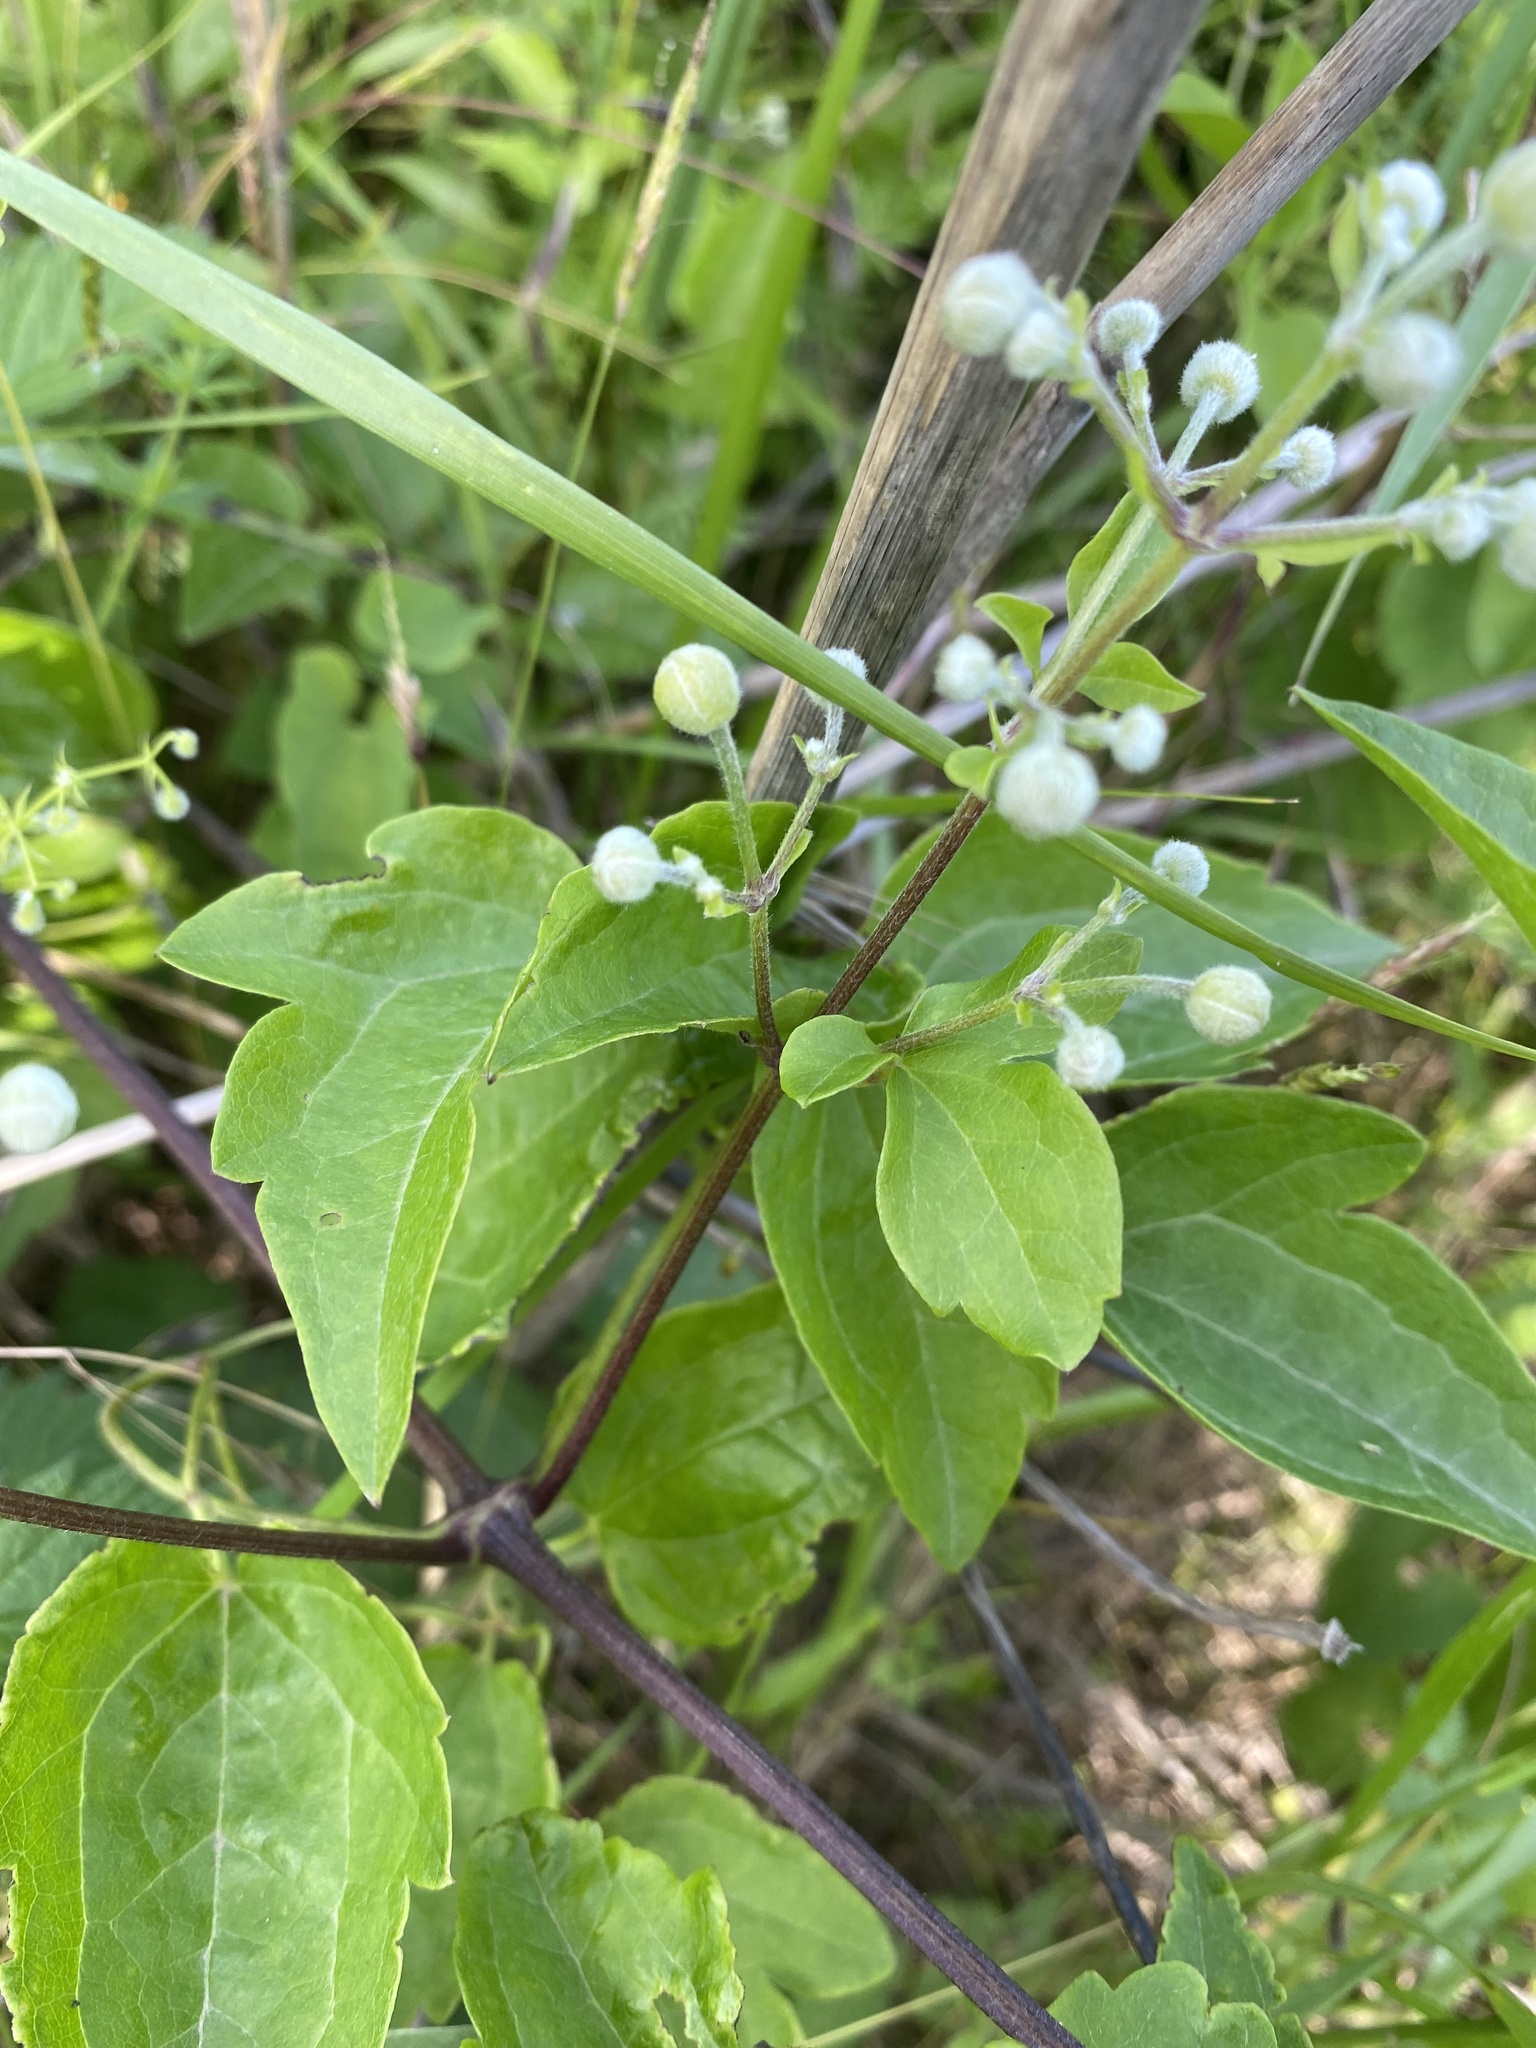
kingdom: Plantae
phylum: Tracheophyta
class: Magnoliopsida
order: Ranunculales
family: Ranunculaceae
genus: Clematis
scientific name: Clematis vitalba
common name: Evergreen clematis
